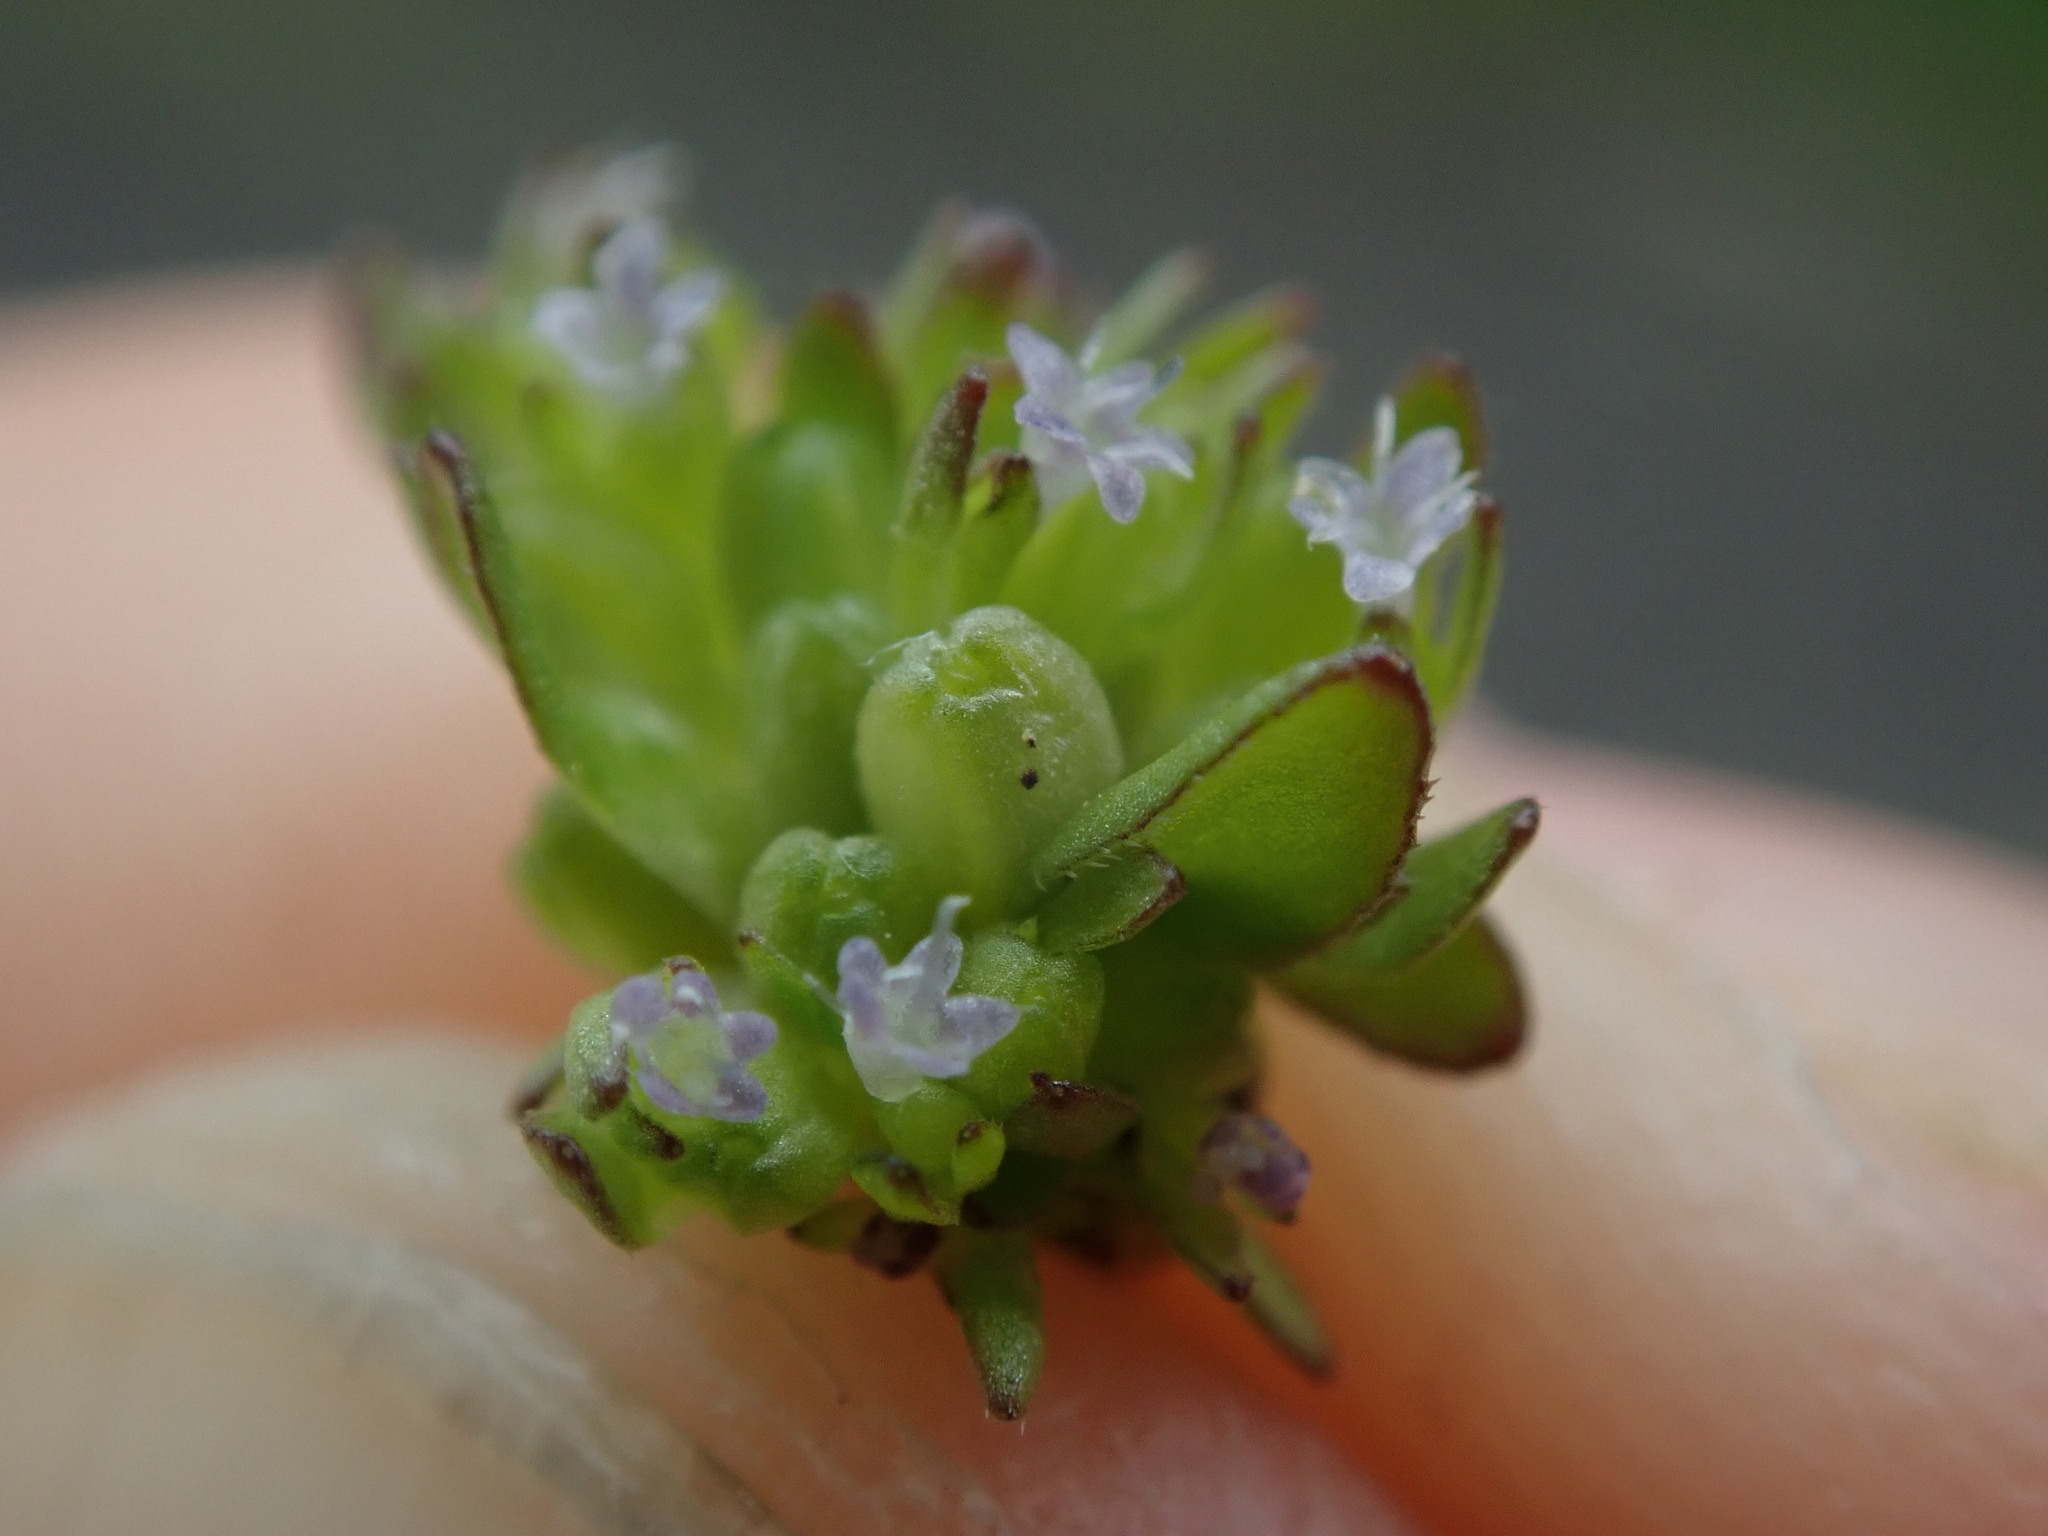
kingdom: Plantae
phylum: Tracheophyta
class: Magnoliopsida
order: Dipsacales
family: Caprifoliaceae
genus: Valerianella
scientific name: Valerianella carinata
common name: Keeled-fruited cornsalad
